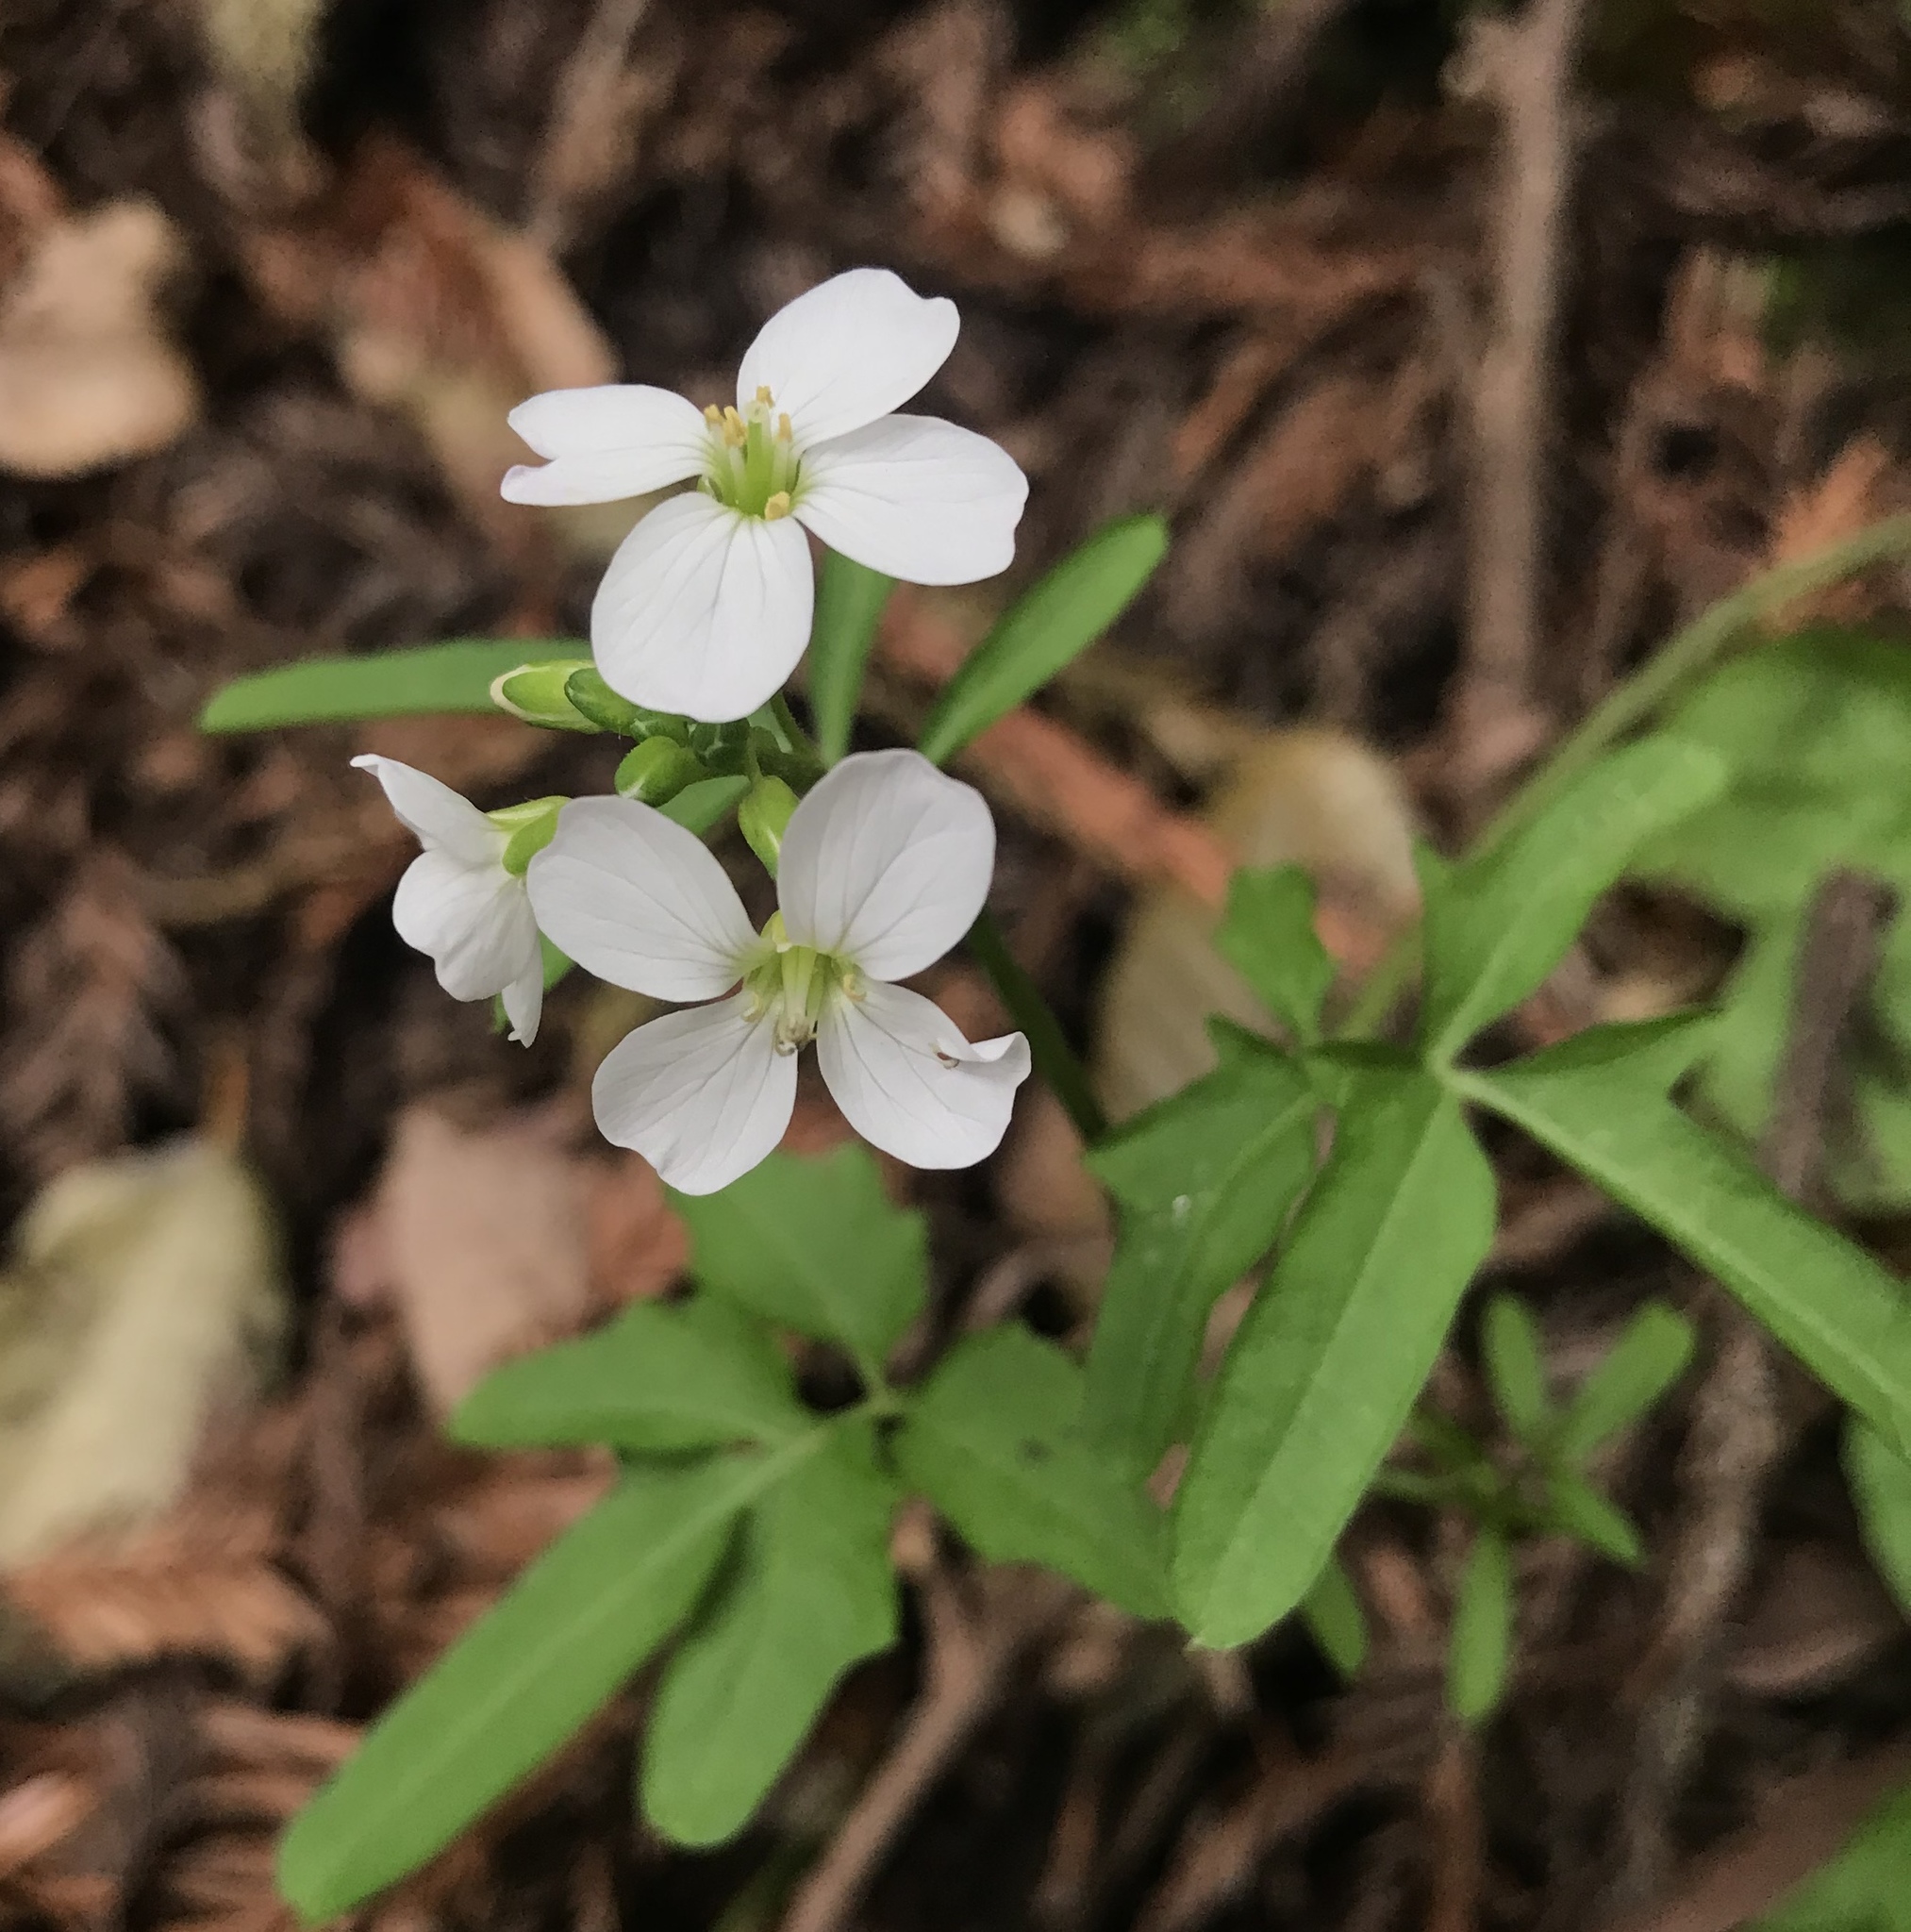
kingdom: Plantae
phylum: Tracheophyta
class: Magnoliopsida
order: Brassicales
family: Brassicaceae
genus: Cardamine
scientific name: Cardamine californica
